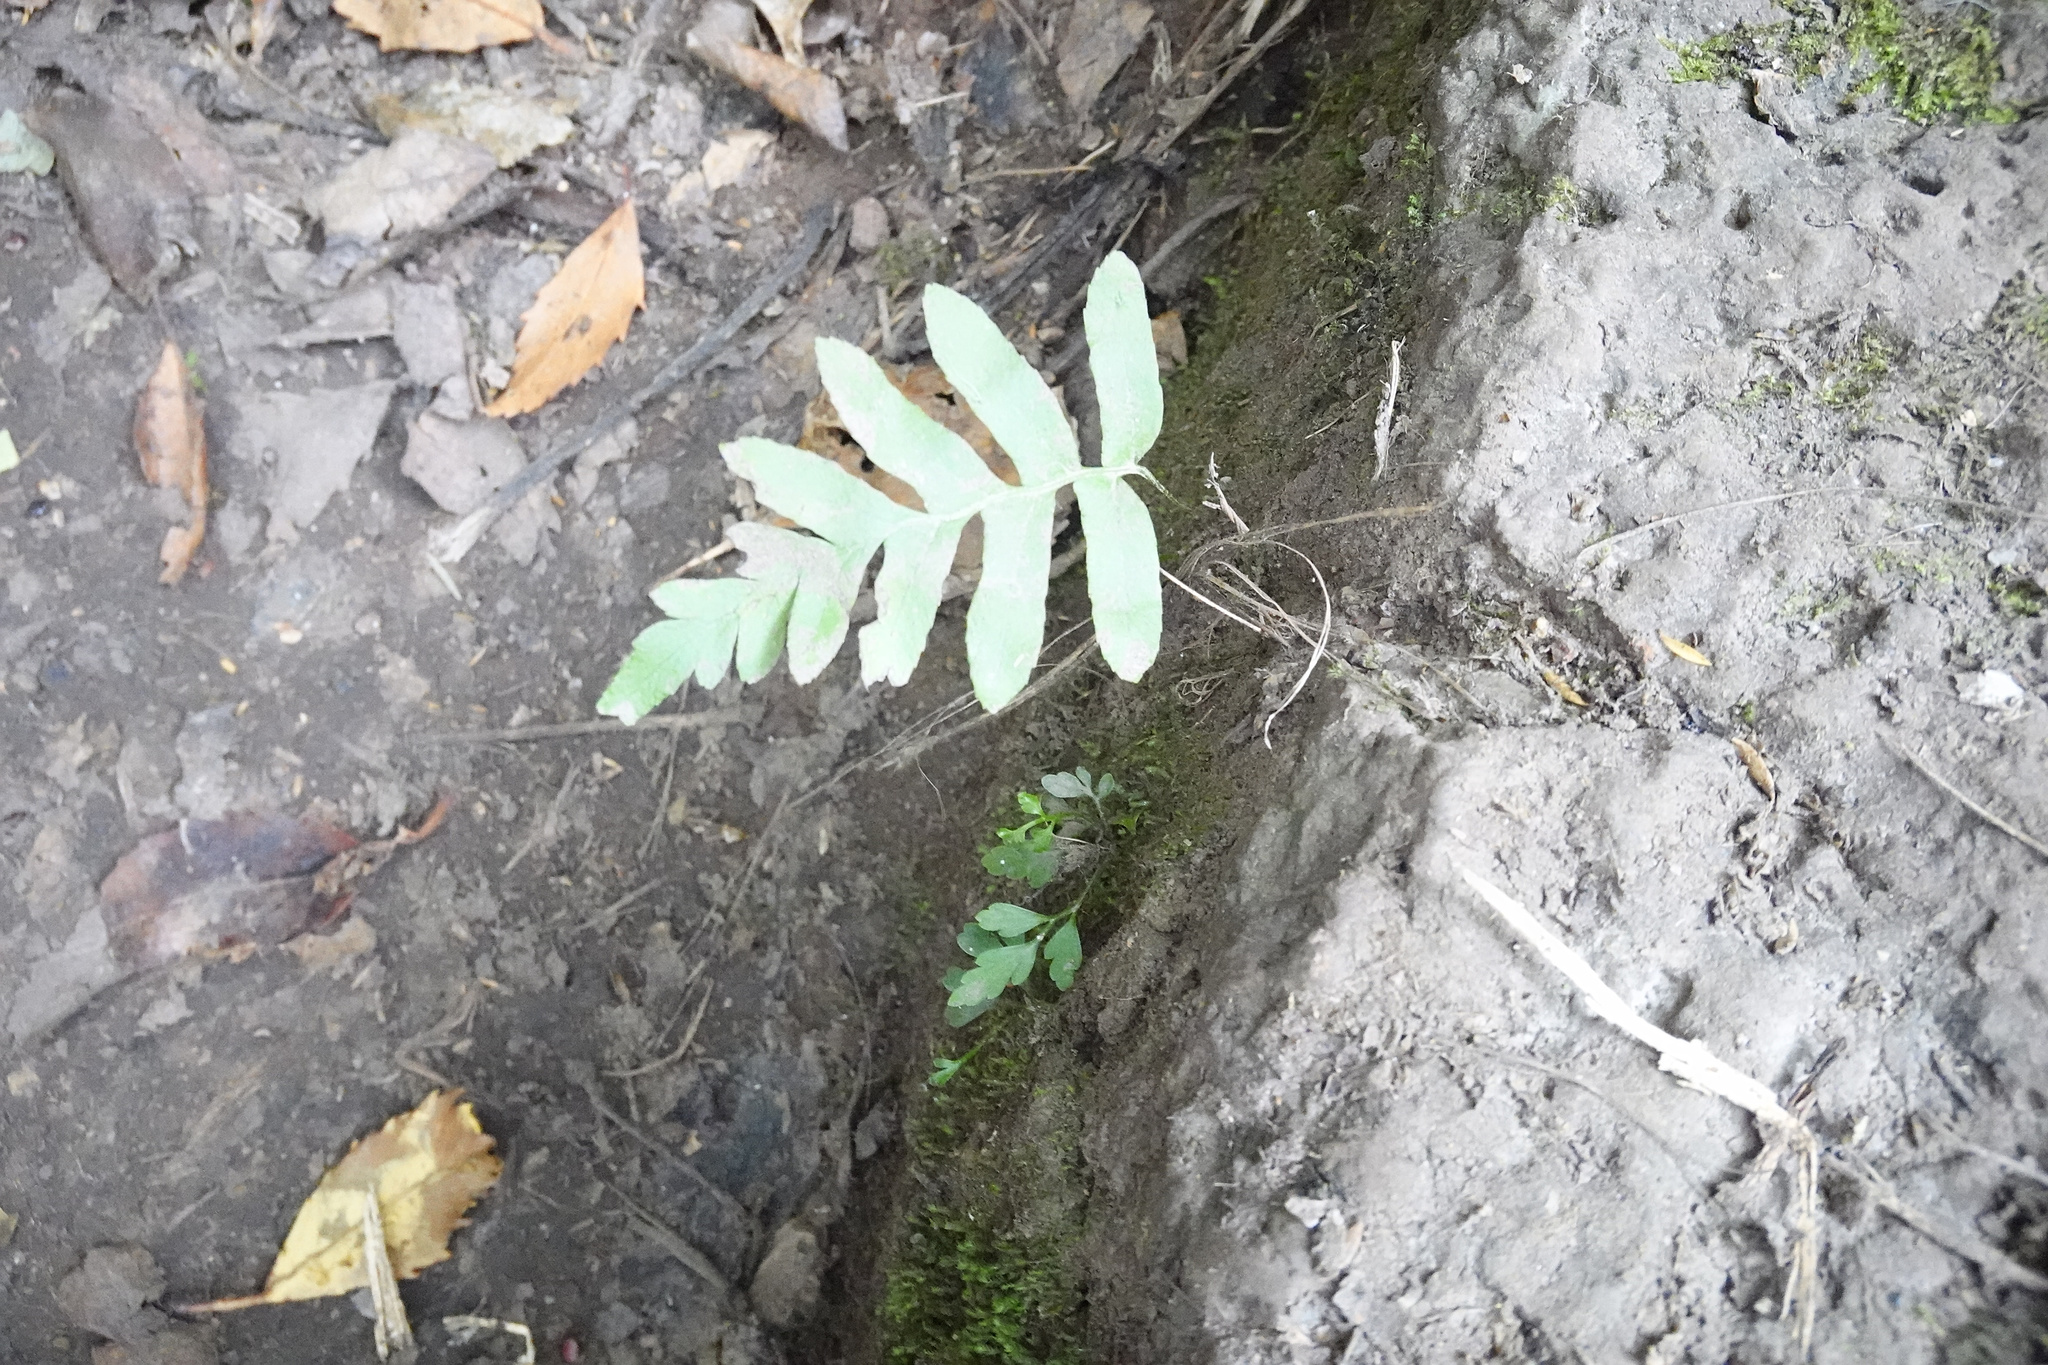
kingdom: Plantae
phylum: Tracheophyta
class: Polypodiopsida
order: Polypodiales
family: Polypodiaceae
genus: Polypodium
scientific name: Polypodium vulgare
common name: Common polypody
